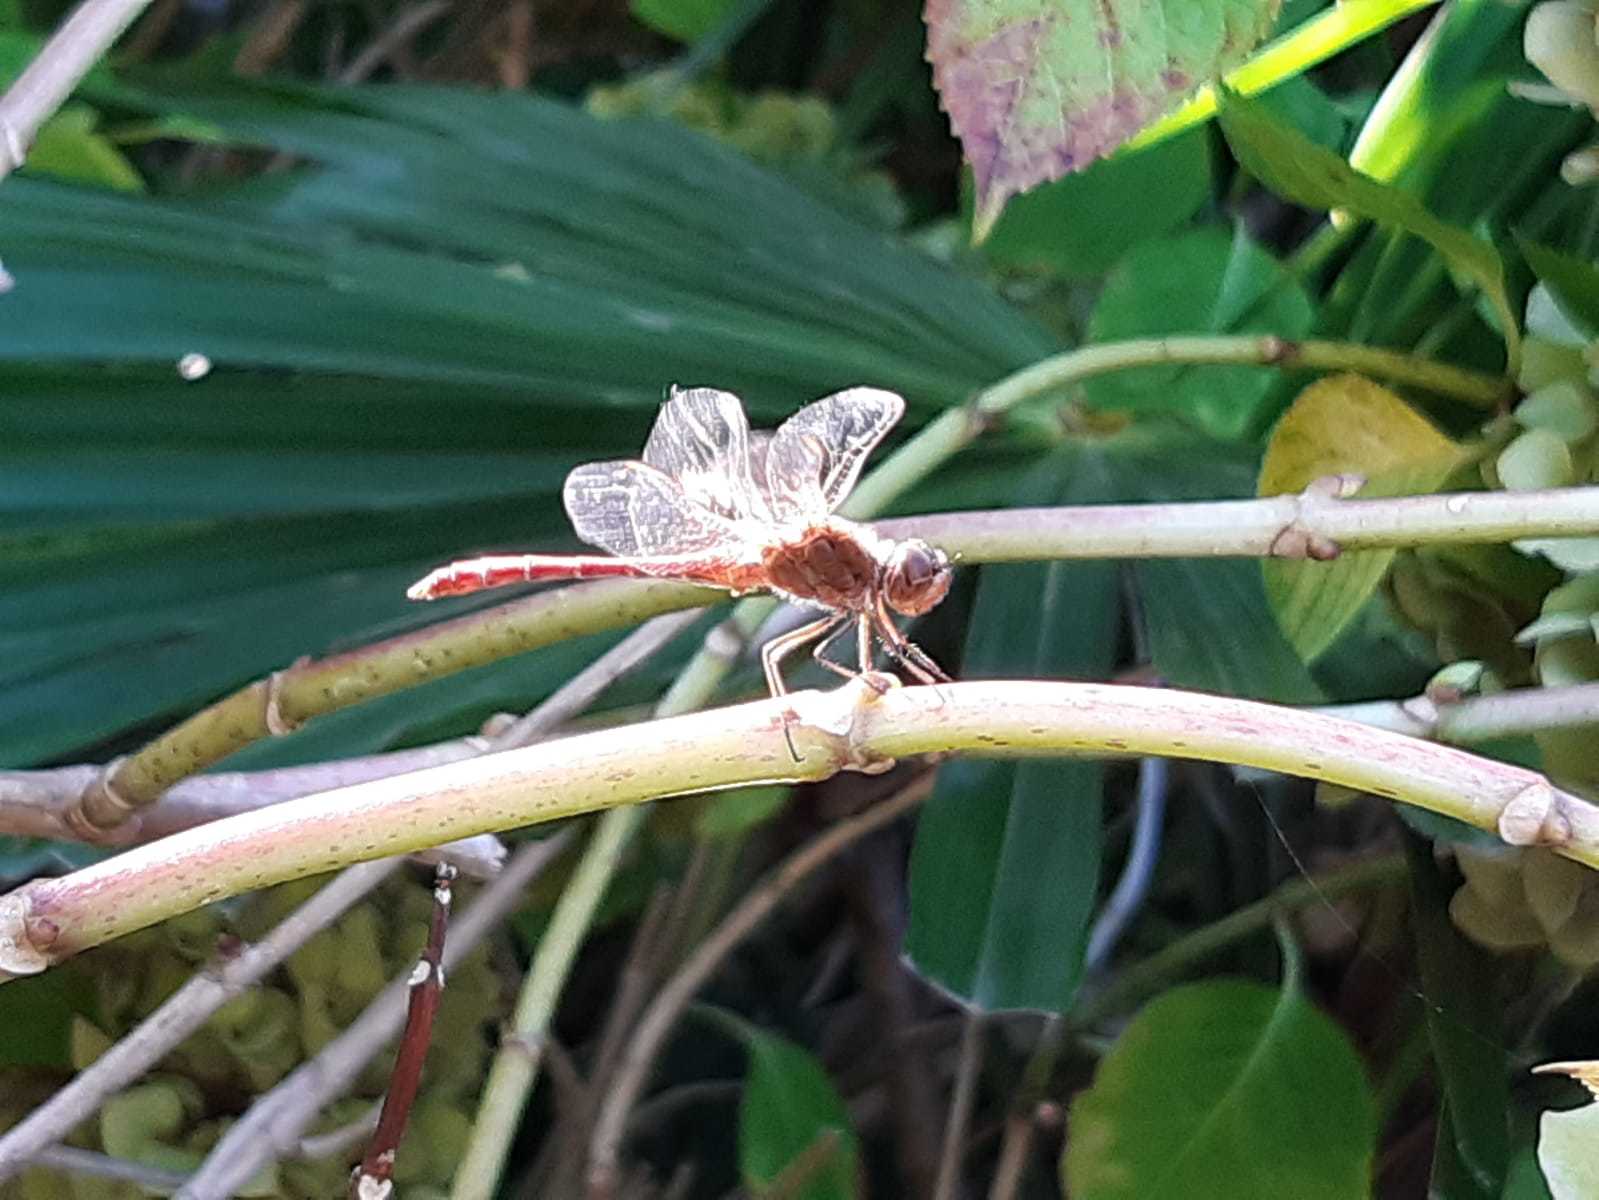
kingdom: Animalia
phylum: Arthropoda
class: Insecta
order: Odonata
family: Libellulidae
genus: Sympetrum
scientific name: Sympetrum meridionale
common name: Southern darter
